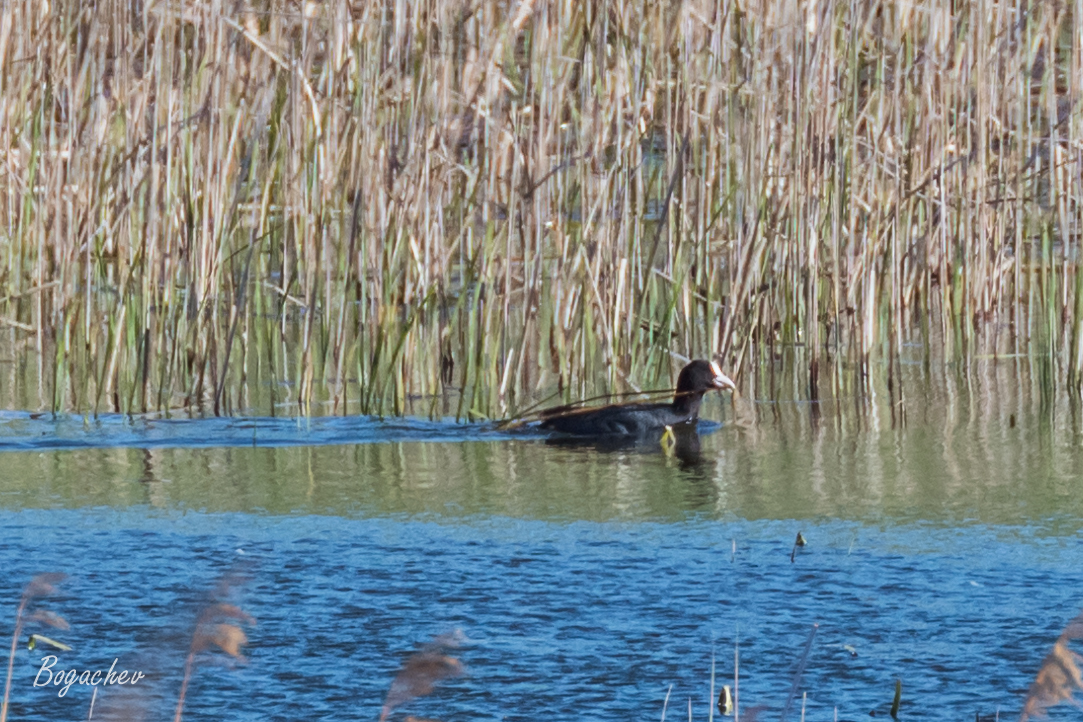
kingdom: Animalia
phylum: Chordata
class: Aves
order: Gruiformes
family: Rallidae
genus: Fulica
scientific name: Fulica atra
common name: Eurasian coot
